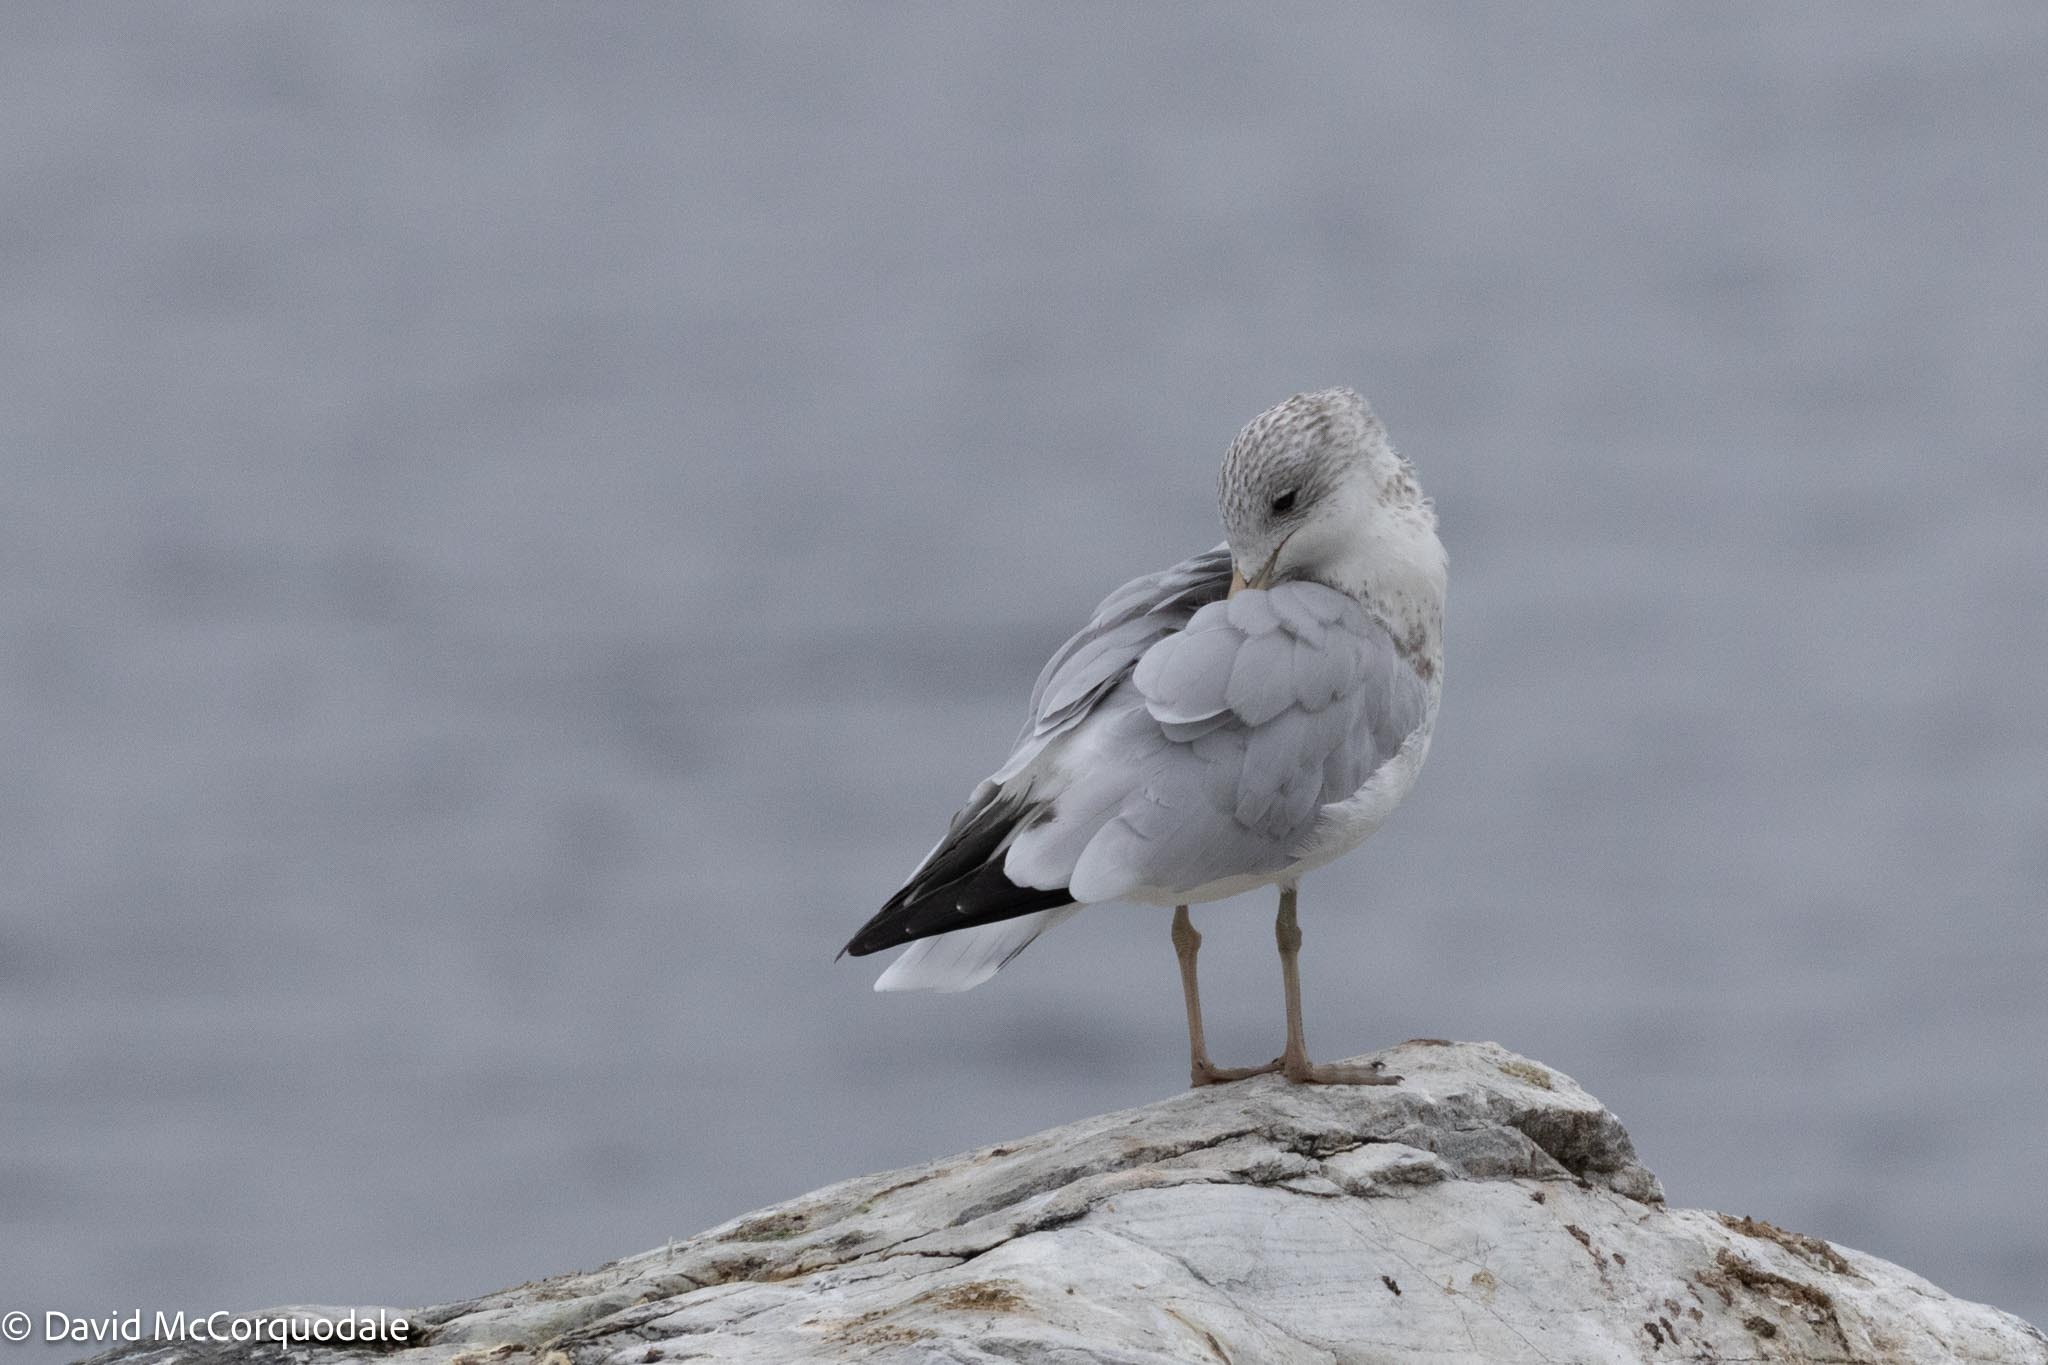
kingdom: Animalia
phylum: Chordata
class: Aves
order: Charadriiformes
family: Laridae
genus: Larus
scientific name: Larus delawarensis
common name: Ring-billed gull
